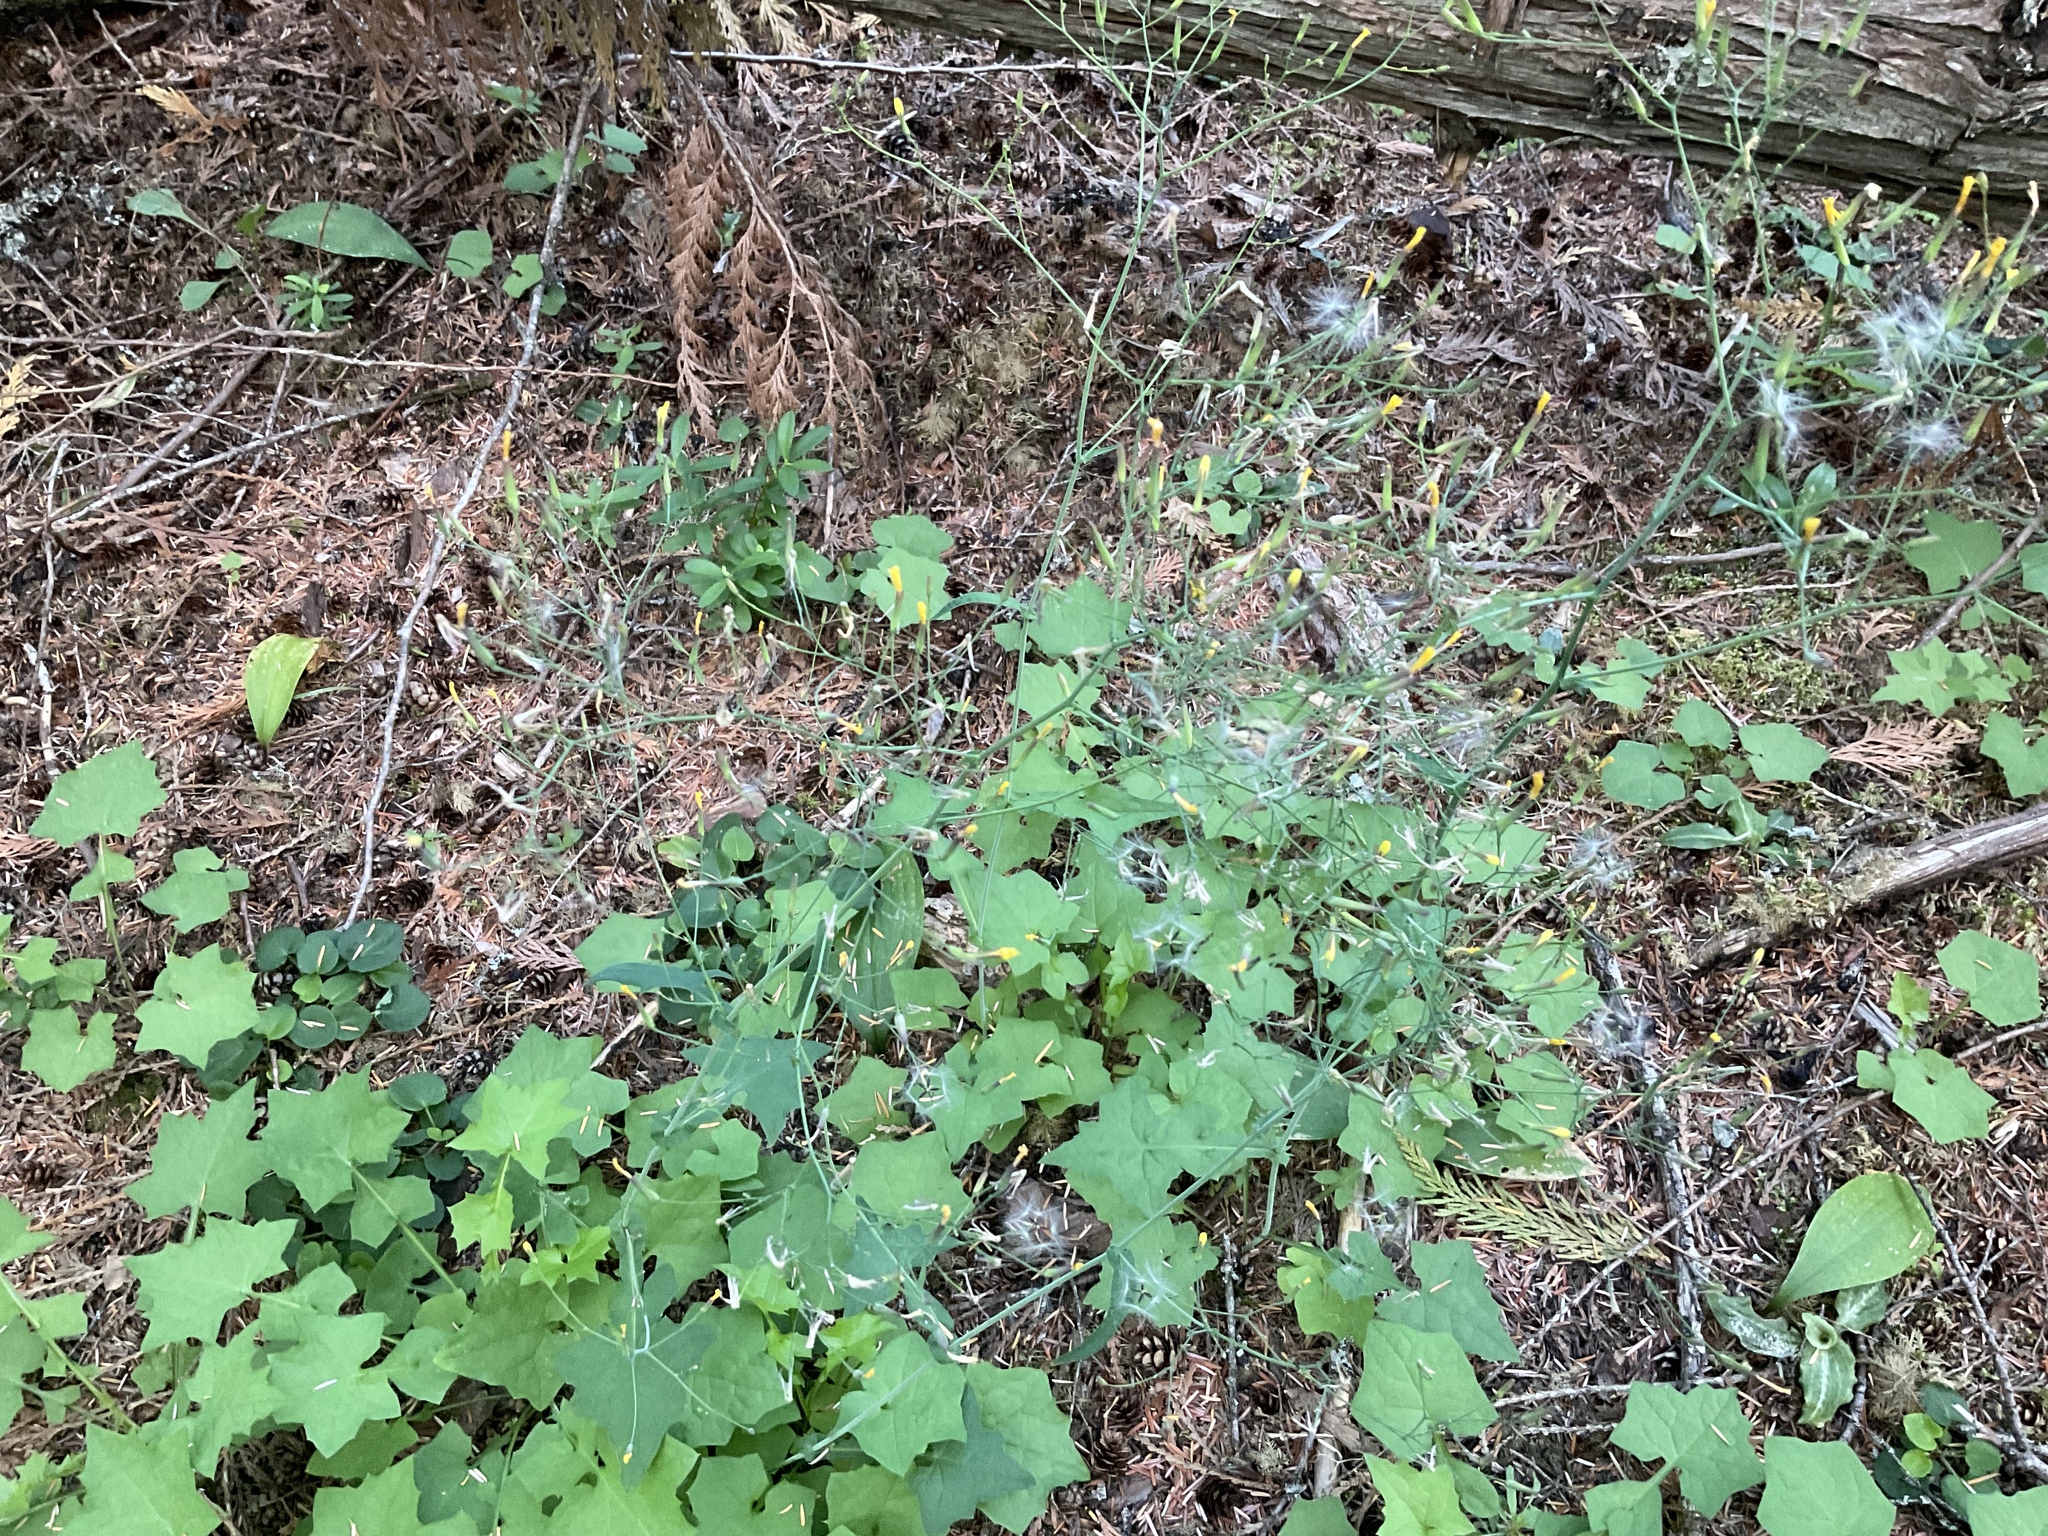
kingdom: Plantae
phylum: Tracheophyta
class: Magnoliopsida
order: Asterales
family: Asteraceae
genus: Mycelis
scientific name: Mycelis muralis
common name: Wall lettuce
